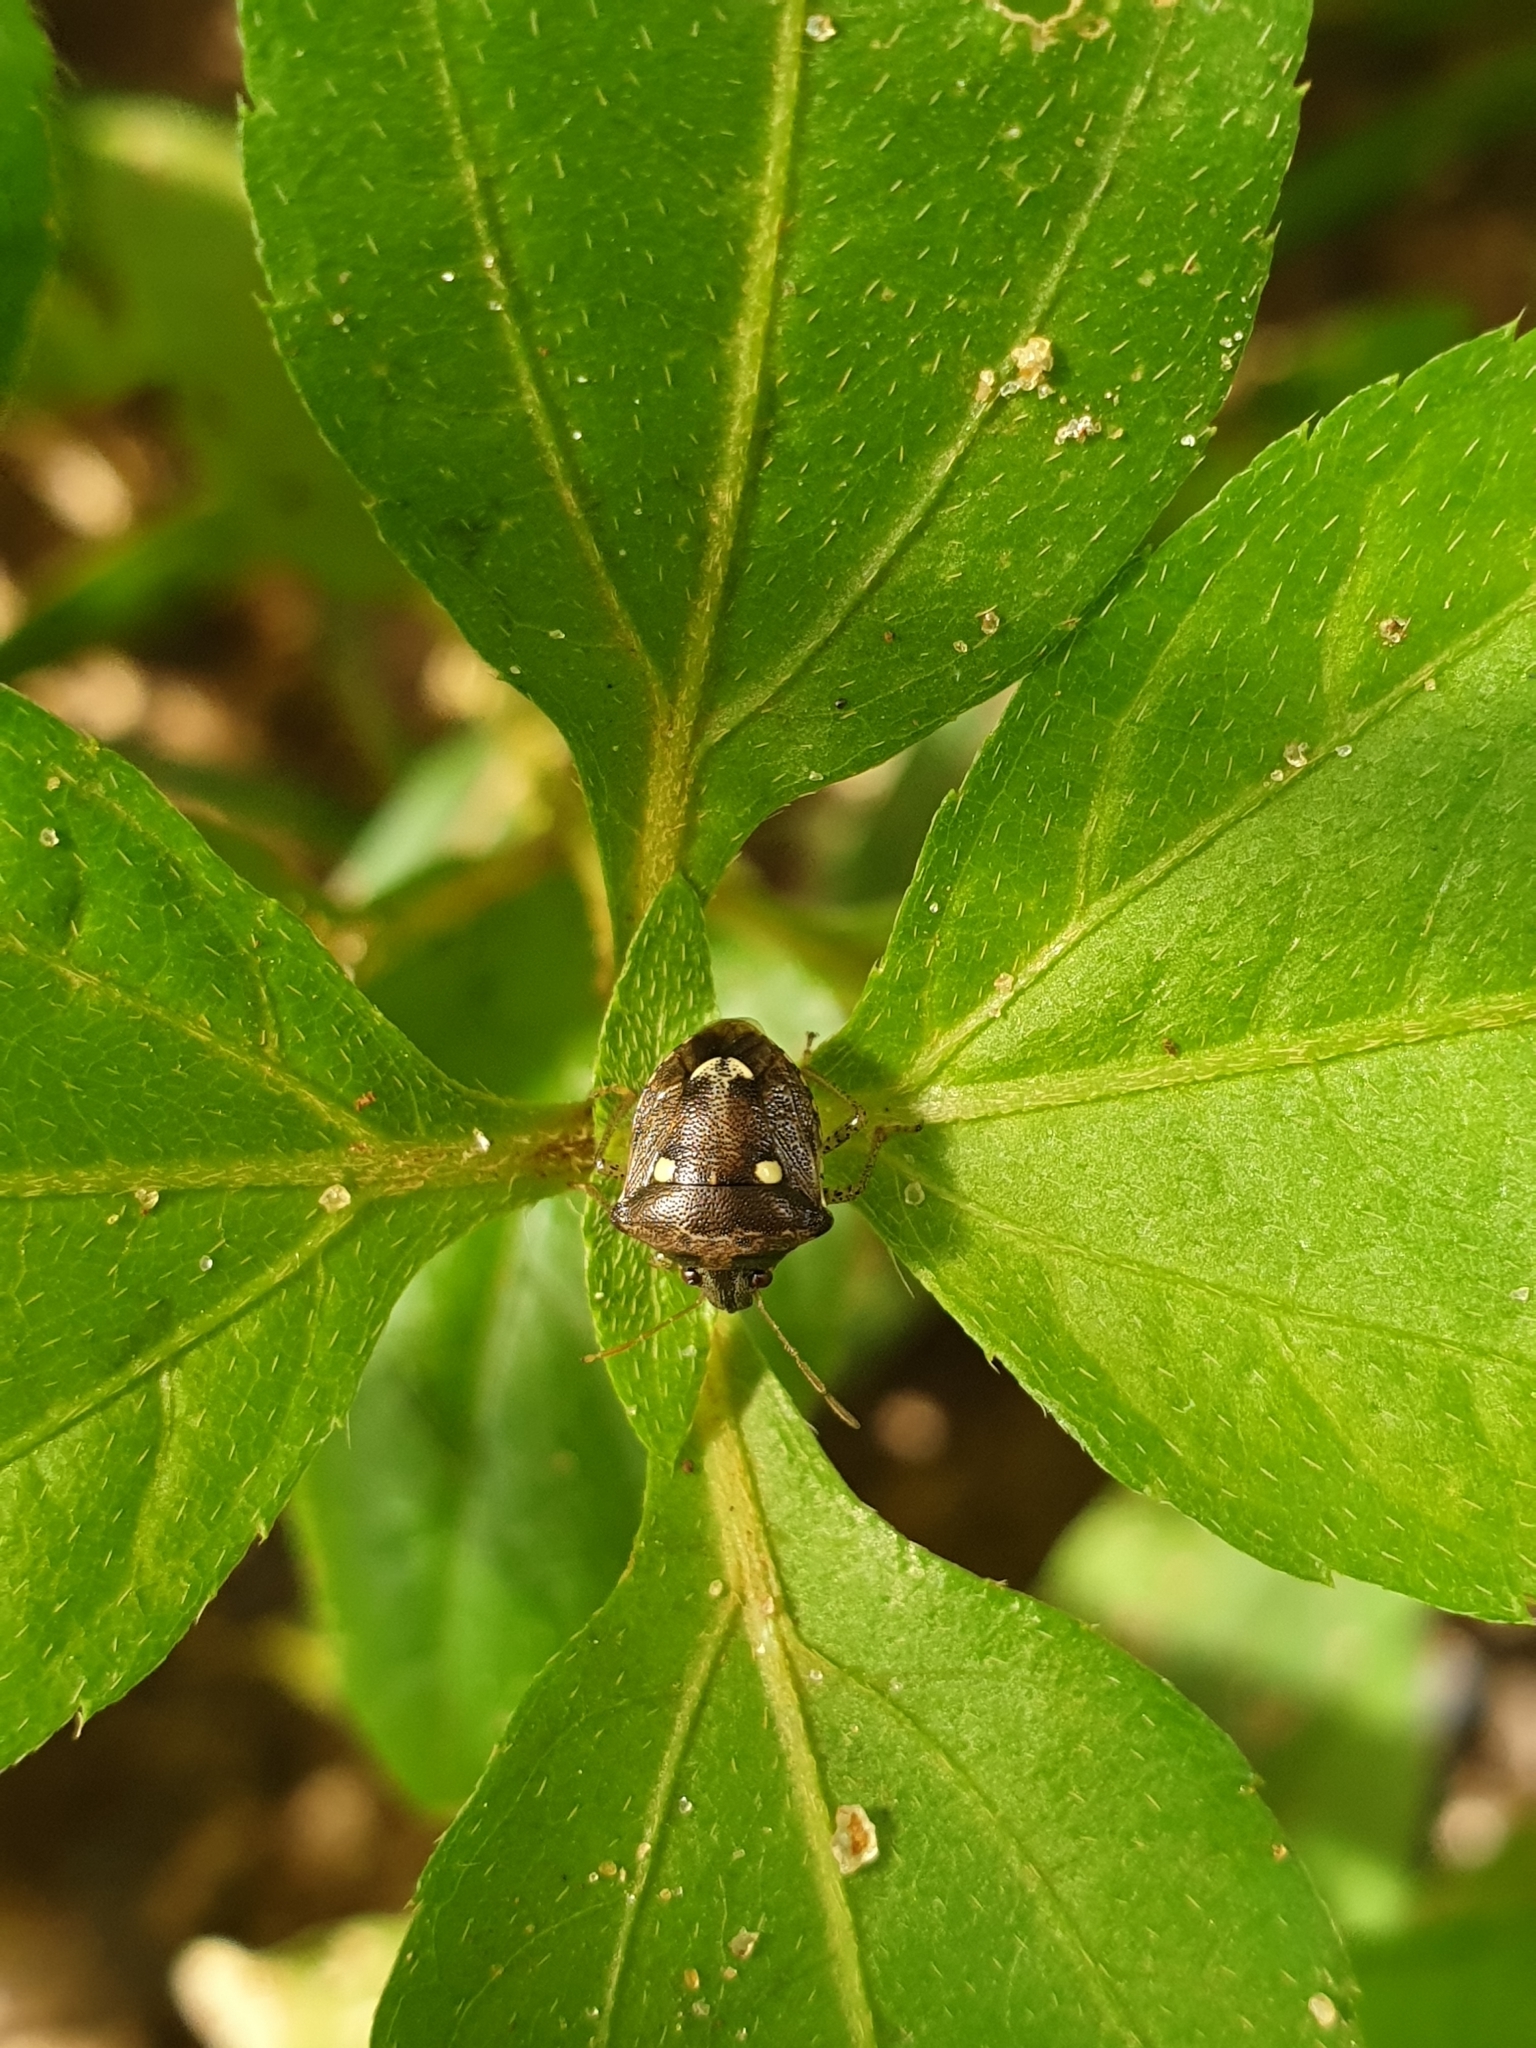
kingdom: Animalia
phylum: Arthropoda
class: Insecta
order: Hemiptera
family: Pentatomidae
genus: Eysarcoris
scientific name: Eysarcoris
